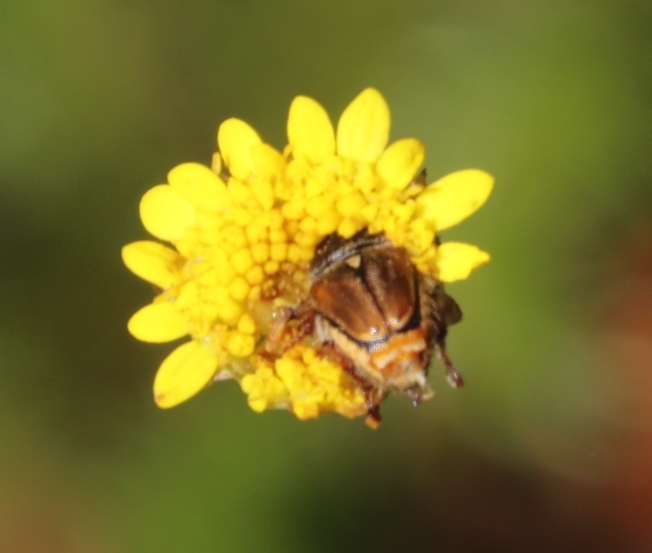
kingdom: Plantae
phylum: Tracheophyta
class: Magnoliopsida
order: Asterales
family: Asteraceae
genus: Cotula
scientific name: Cotula pruinosa
